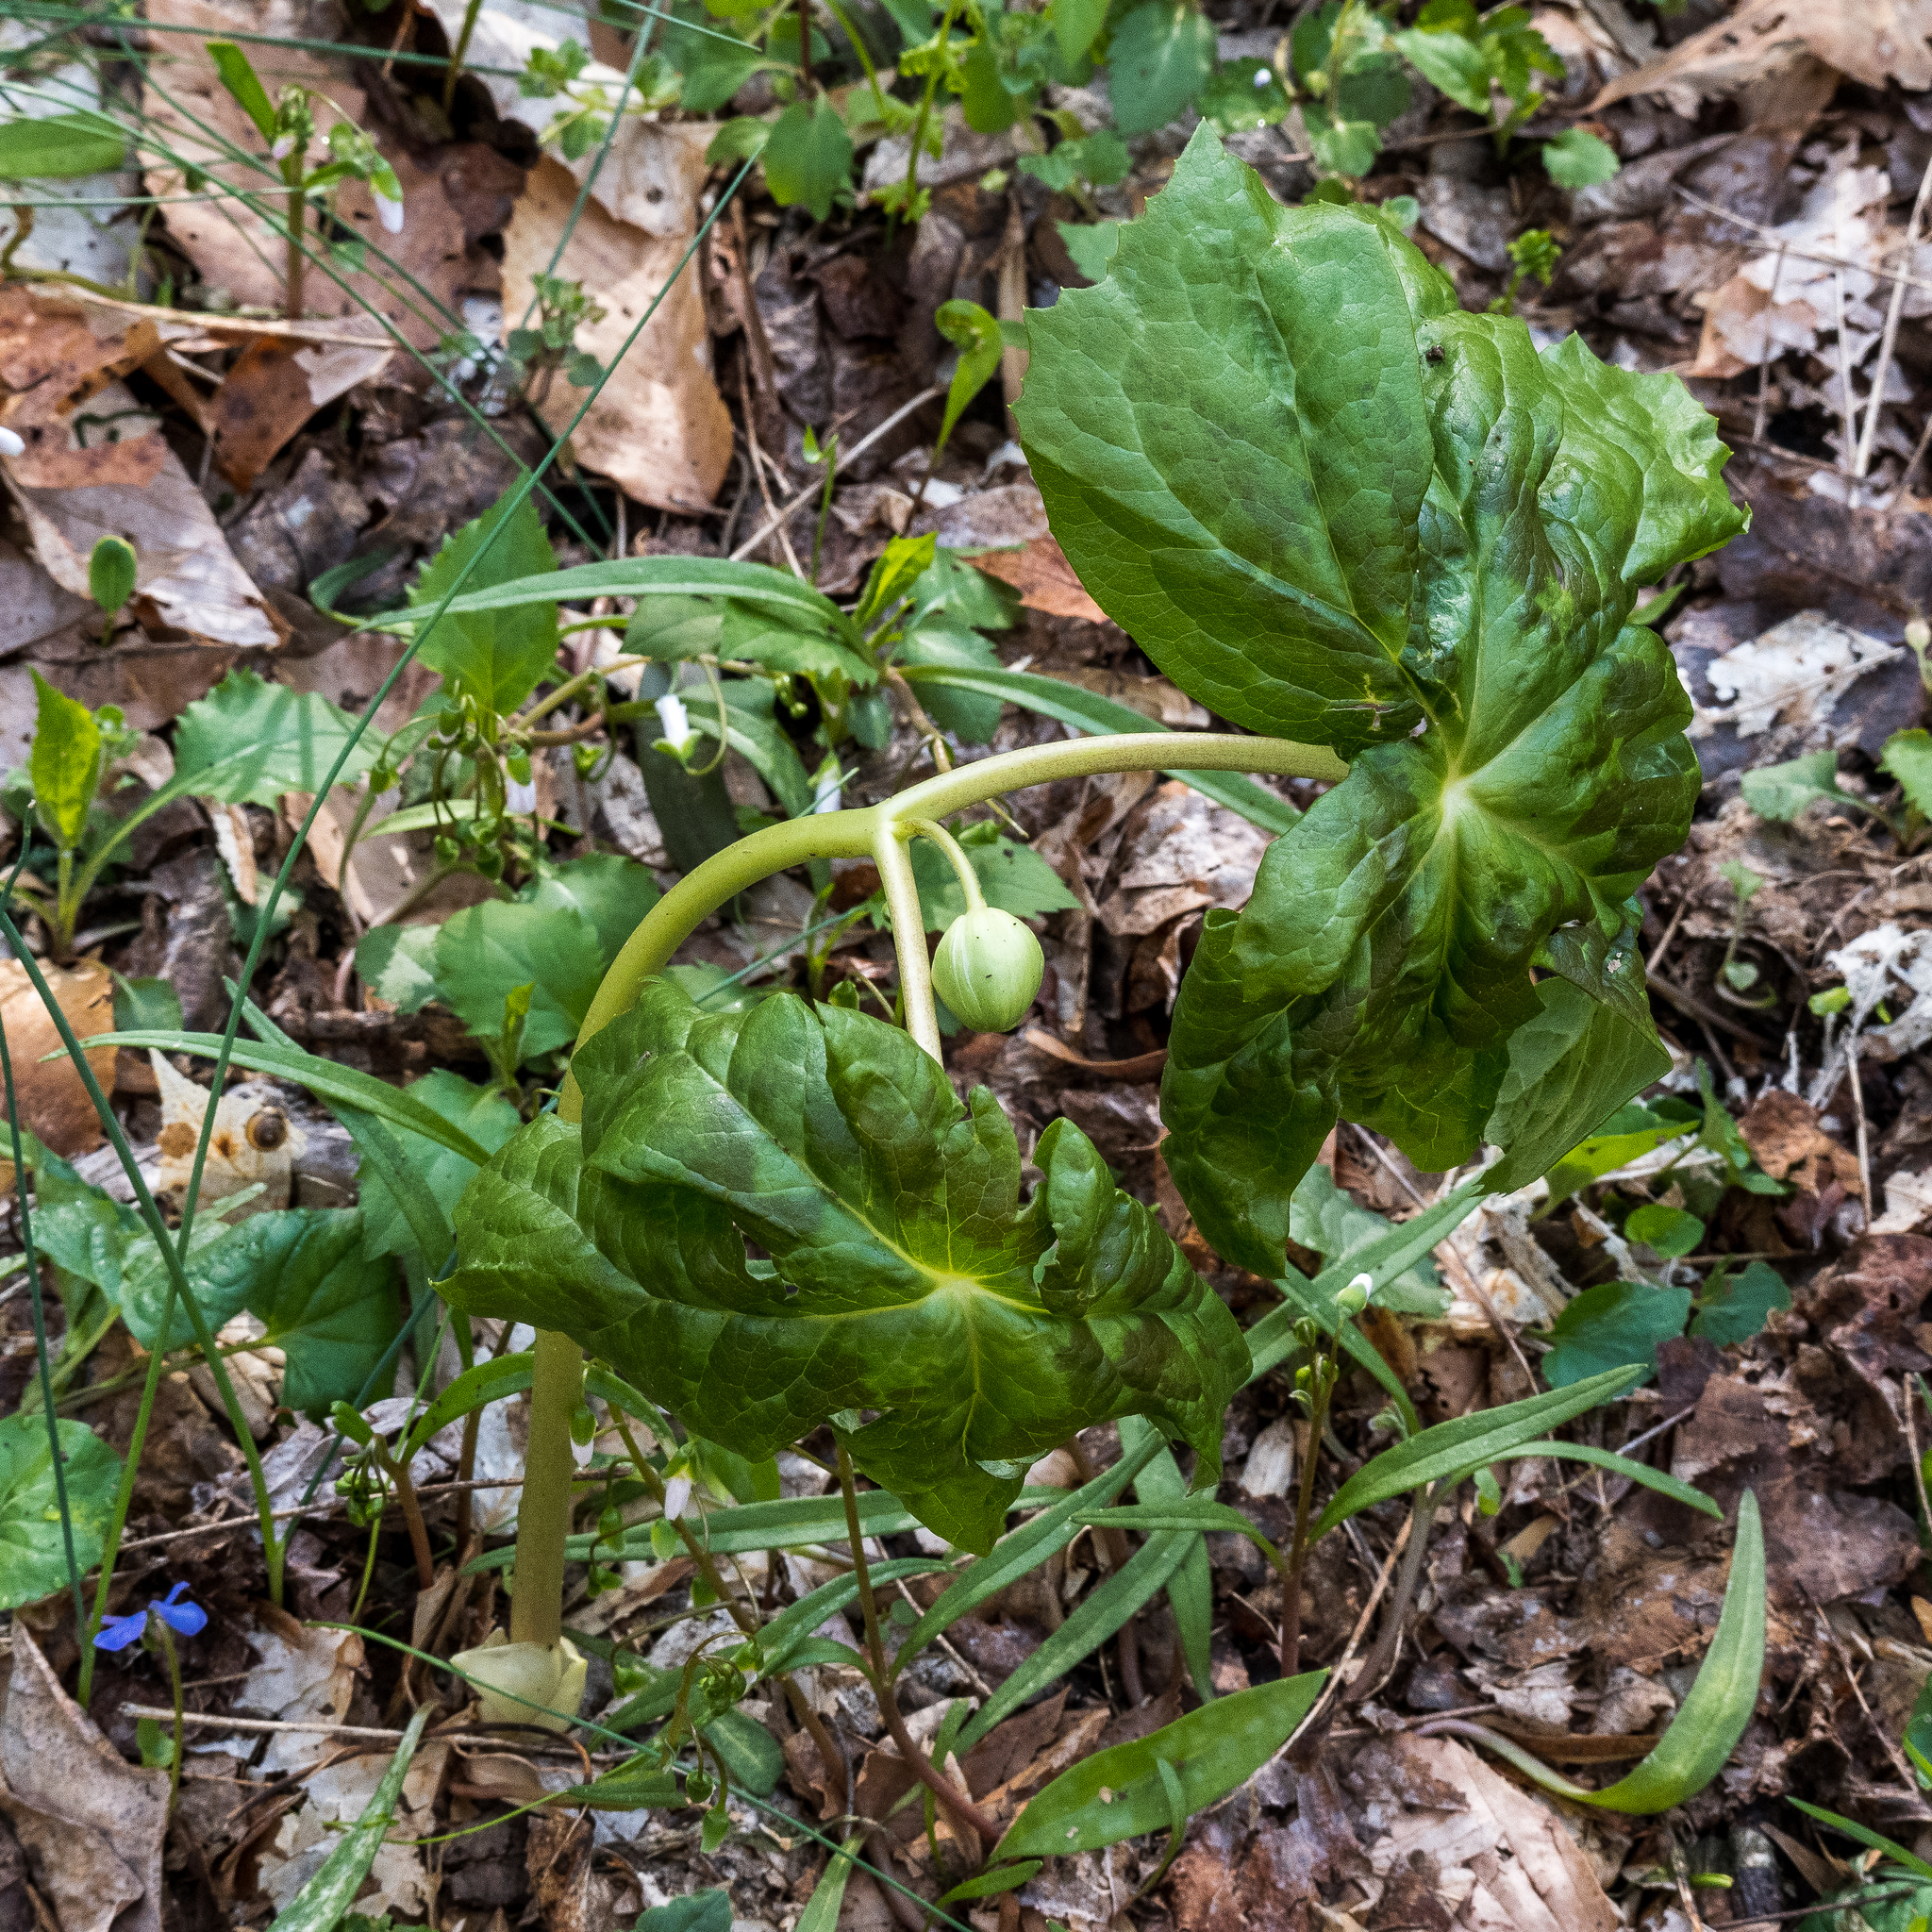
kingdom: Plantae
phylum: Tracheophyta
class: Magnoliopsida
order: Ranunculales
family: Berberidaceae
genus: Podophyllum
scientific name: Podophyllum peltatum
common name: Wild mandrake
